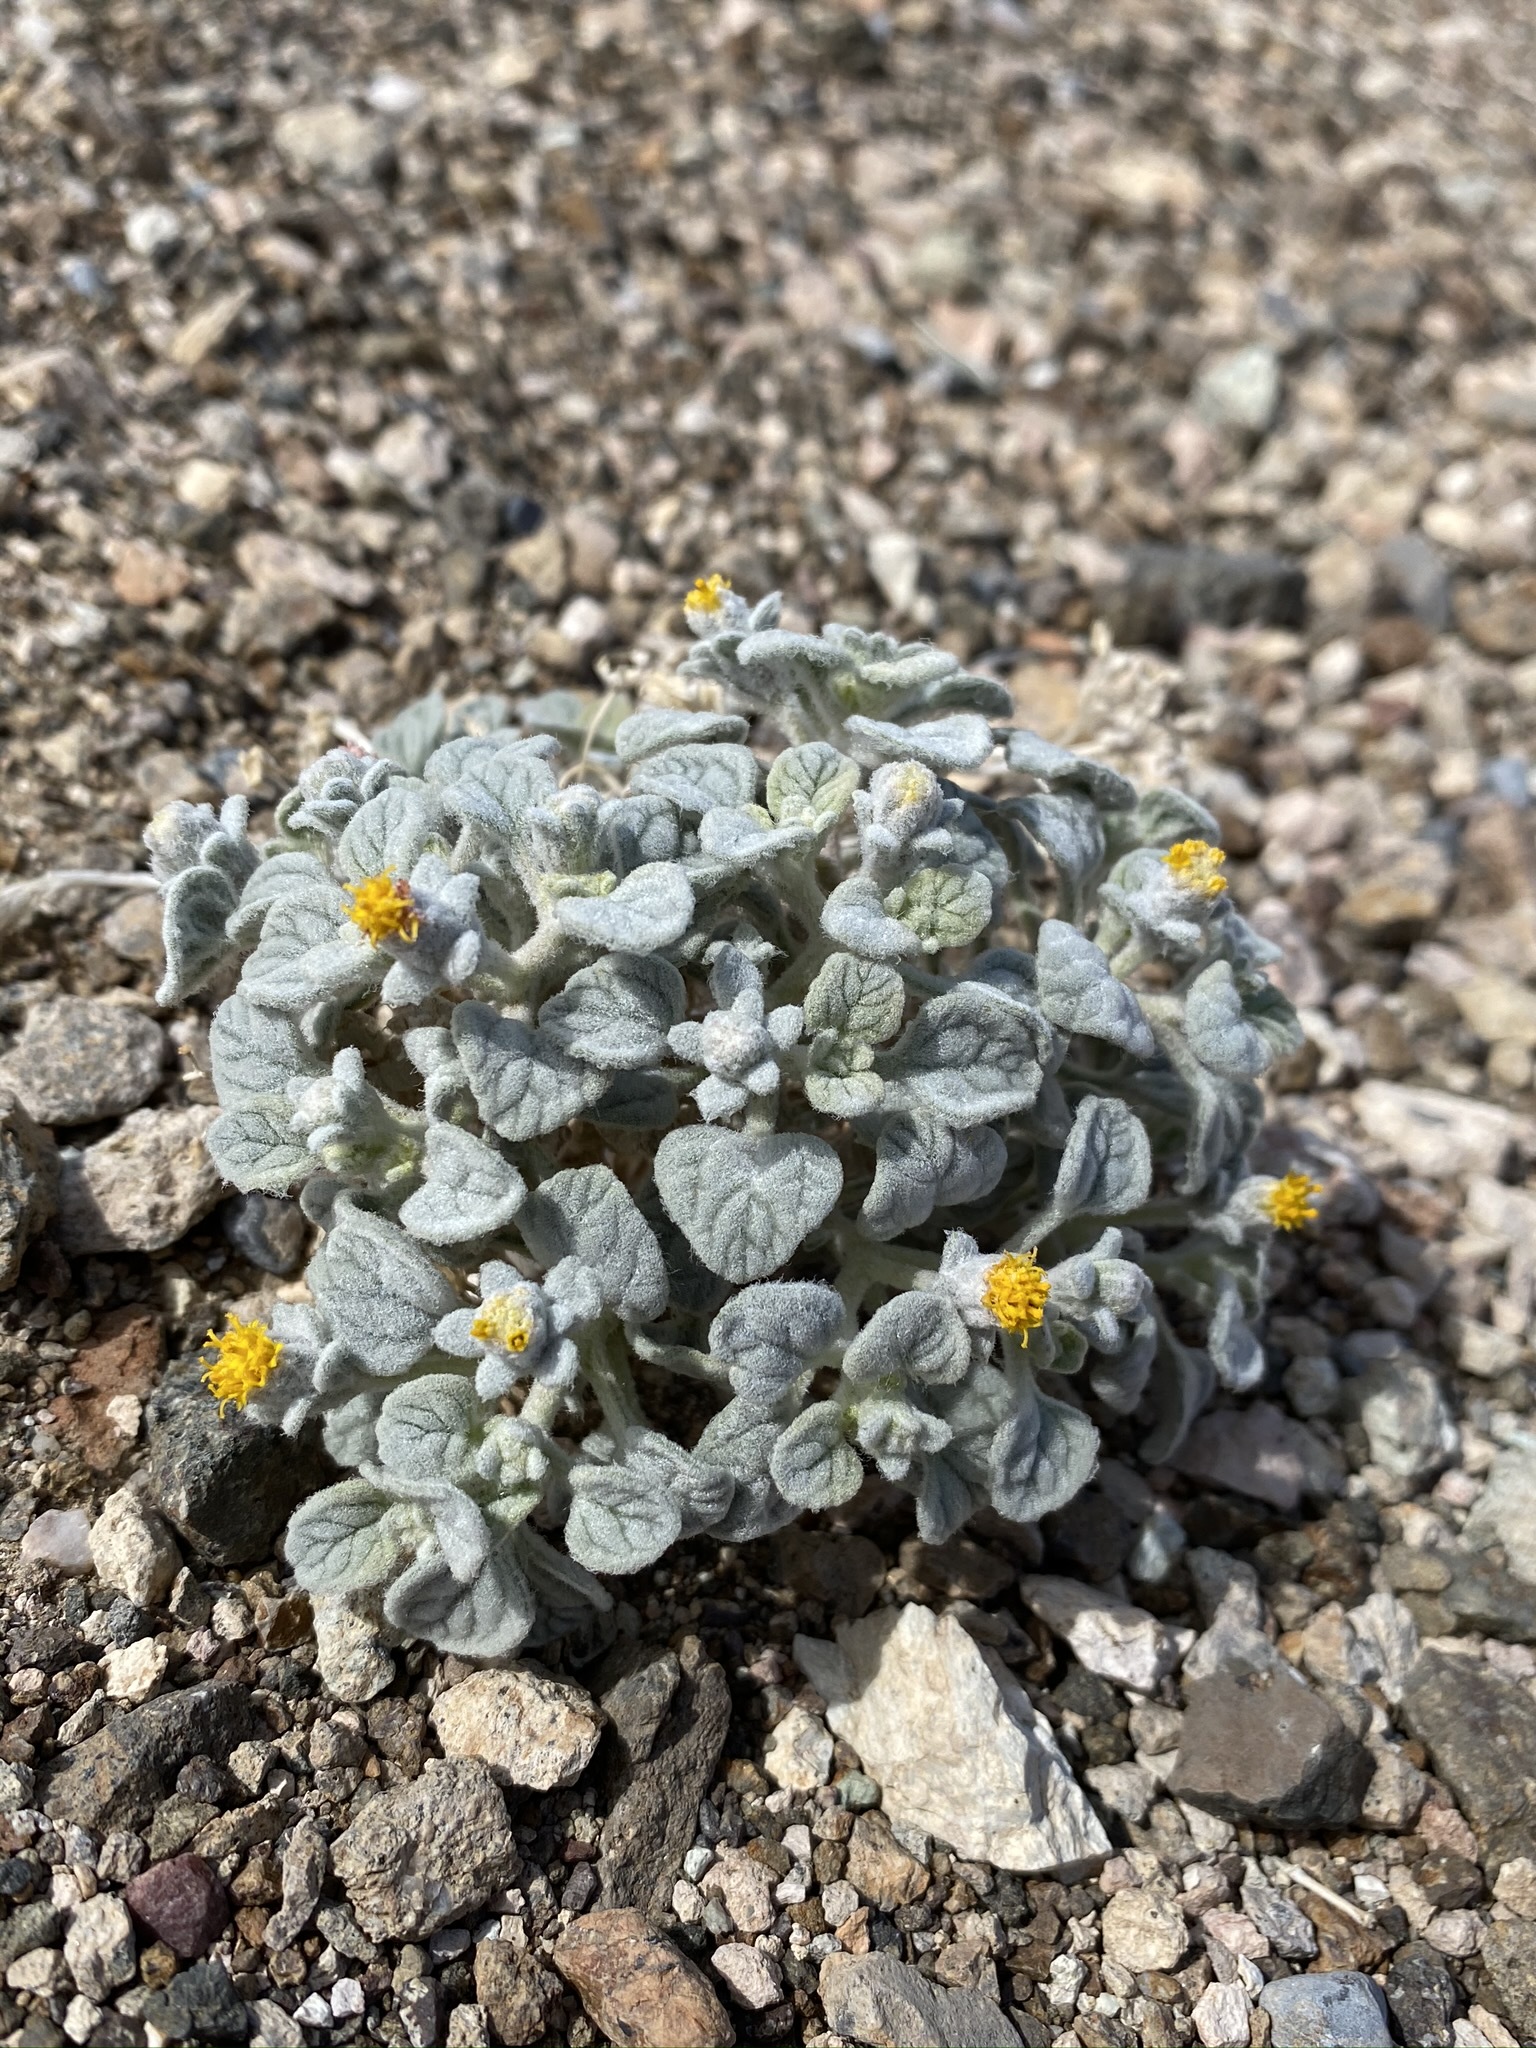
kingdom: Plantae
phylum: Tracheophyta
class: Magnoliopsida
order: Asterales
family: Asteraceae
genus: Psathyrotes
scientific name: Psathyrotes ramosissima
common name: Turtleback
